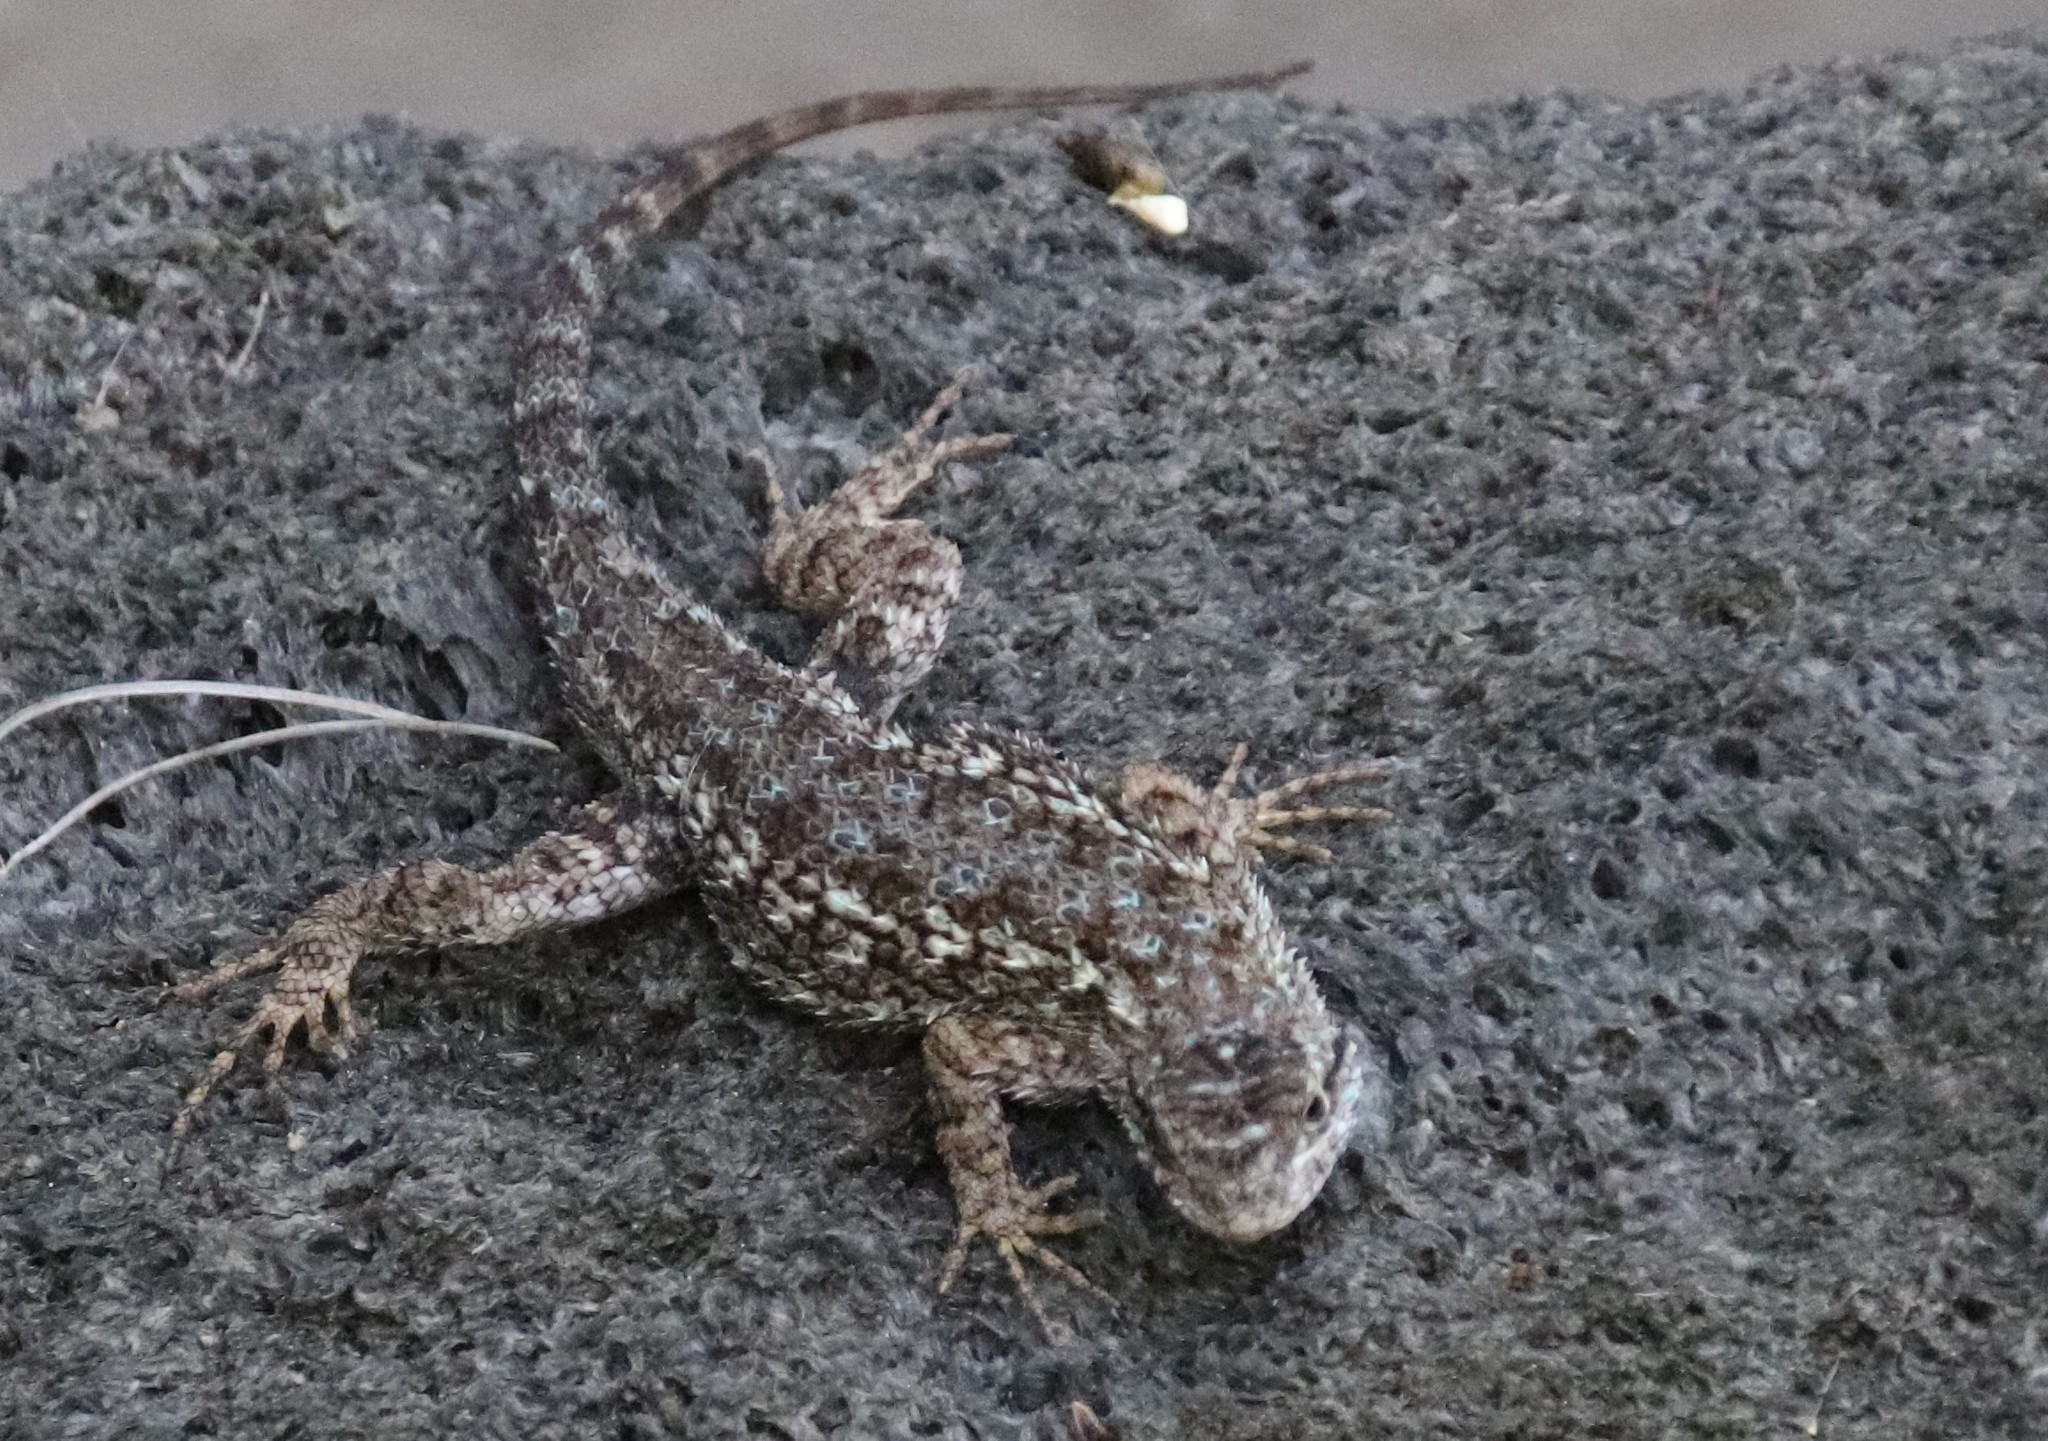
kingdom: Animalia
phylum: Chordata
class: Squamata
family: Phrynosomatidae
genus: Sceloporus
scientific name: Sceloporus occidentalis
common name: Western fence lizard
